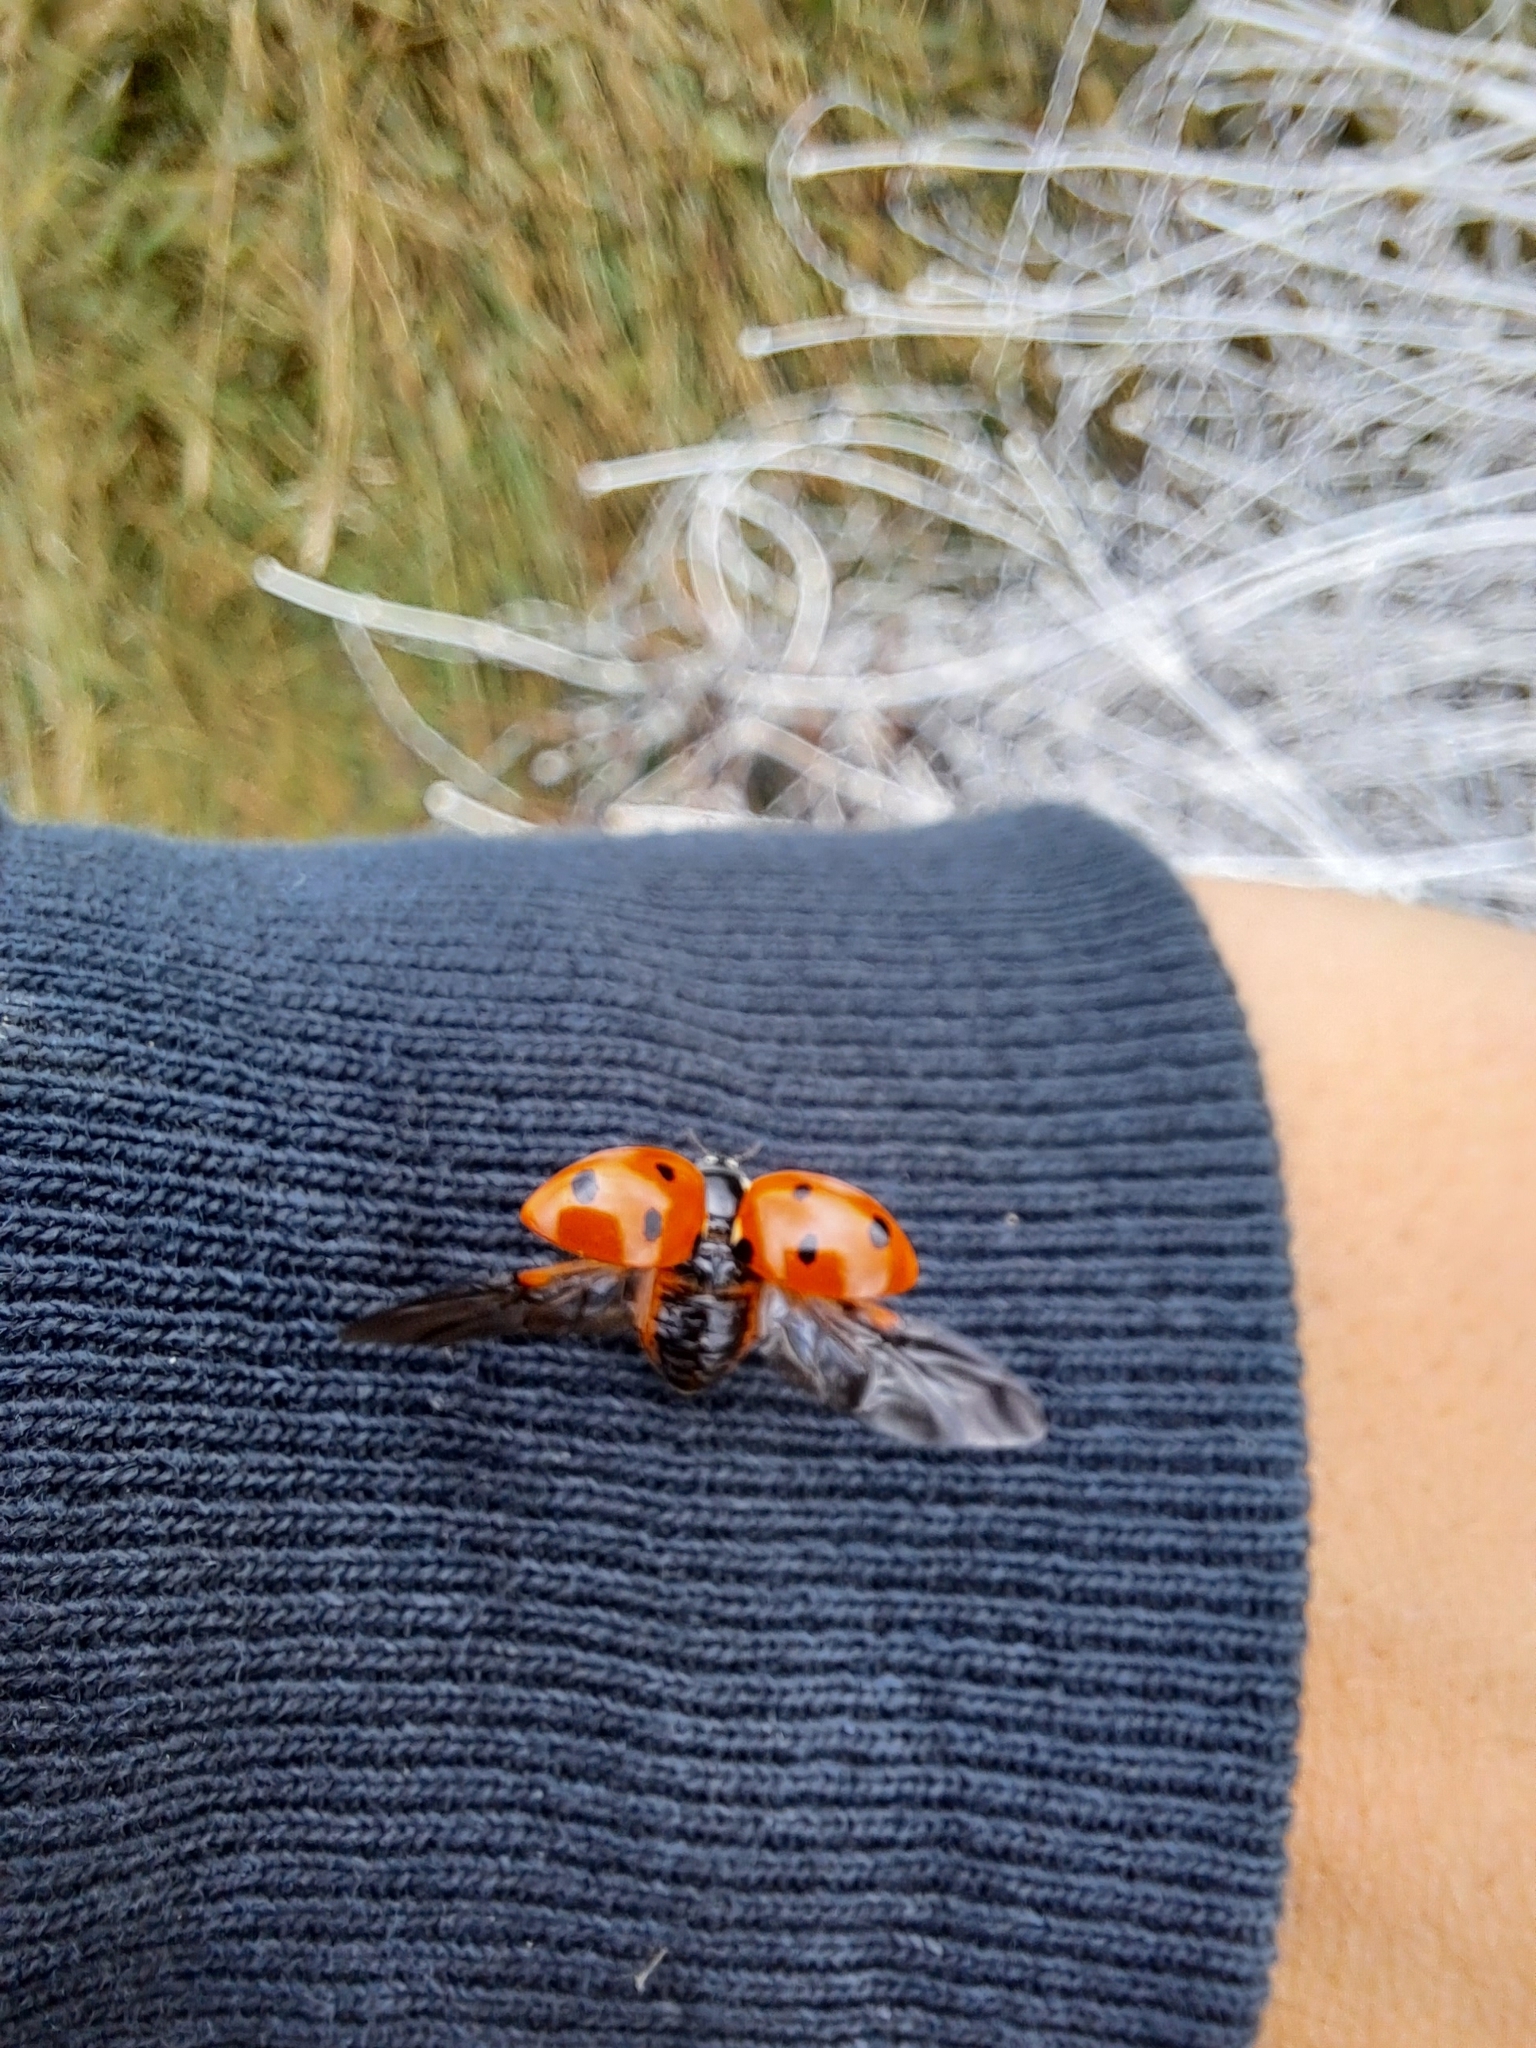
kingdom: Animalia
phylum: Arthropoda
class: Insecta
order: Coleoptera
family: Coccinellidae
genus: Coccinella
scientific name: Coccinella septempunctata
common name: Sevenspotted lady beetle
